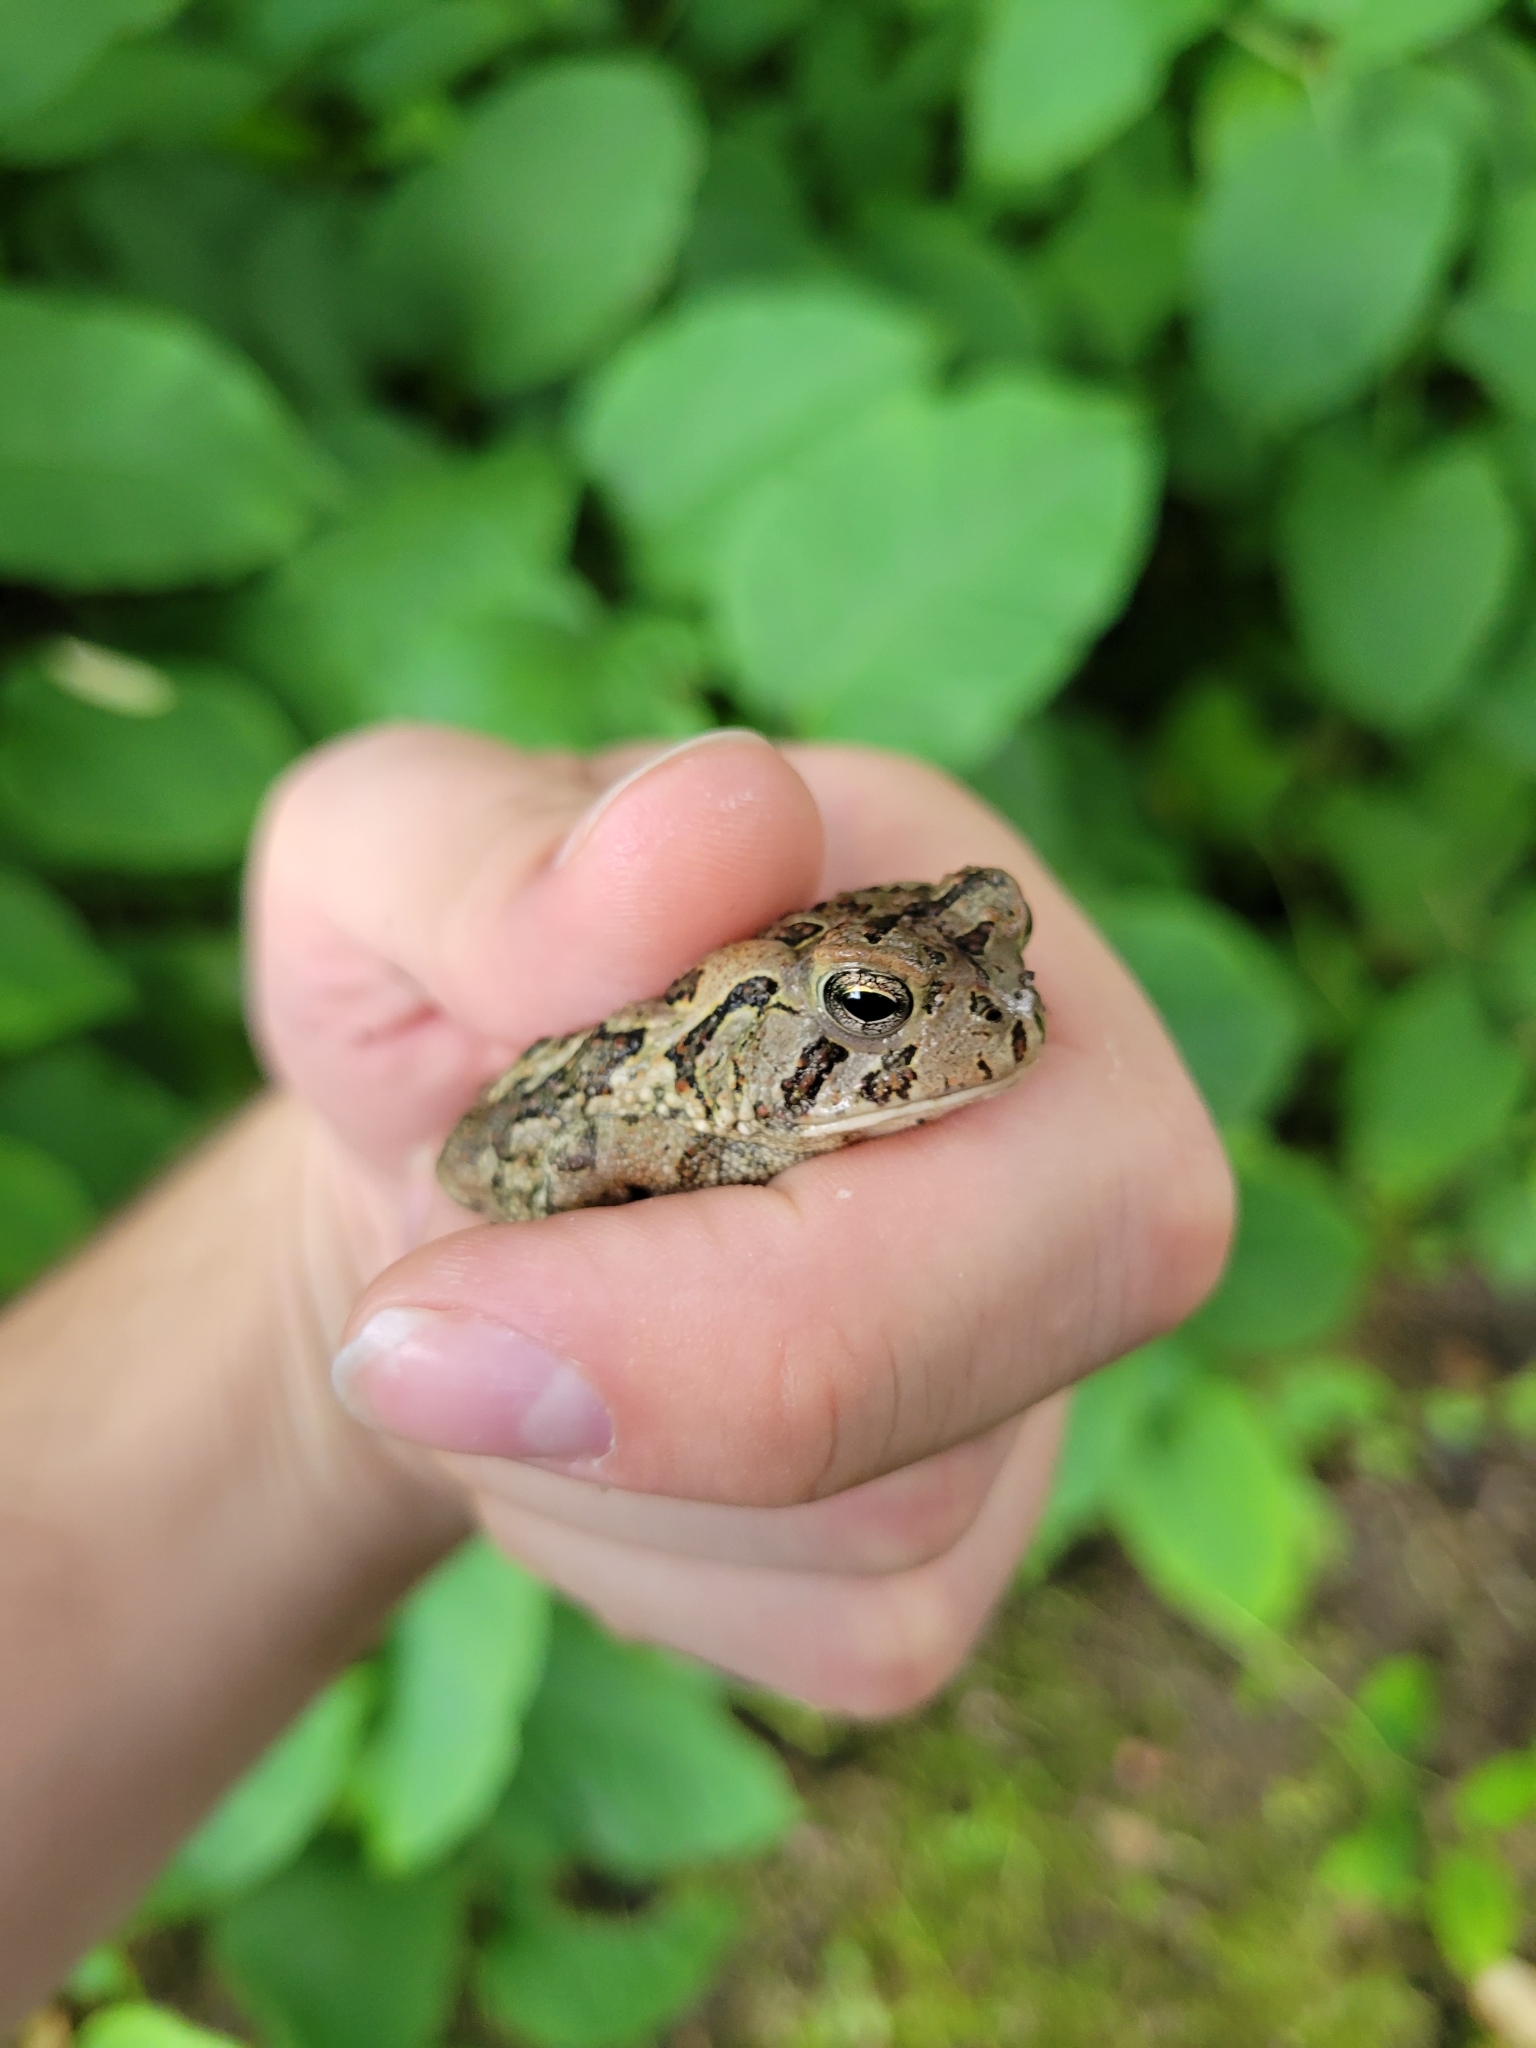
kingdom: Animalia
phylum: Chordata
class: Amphibia
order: Anura
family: Bufonidae
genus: Anaxyrus
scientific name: Anaxyrus fowleri
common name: Fowler's toad
